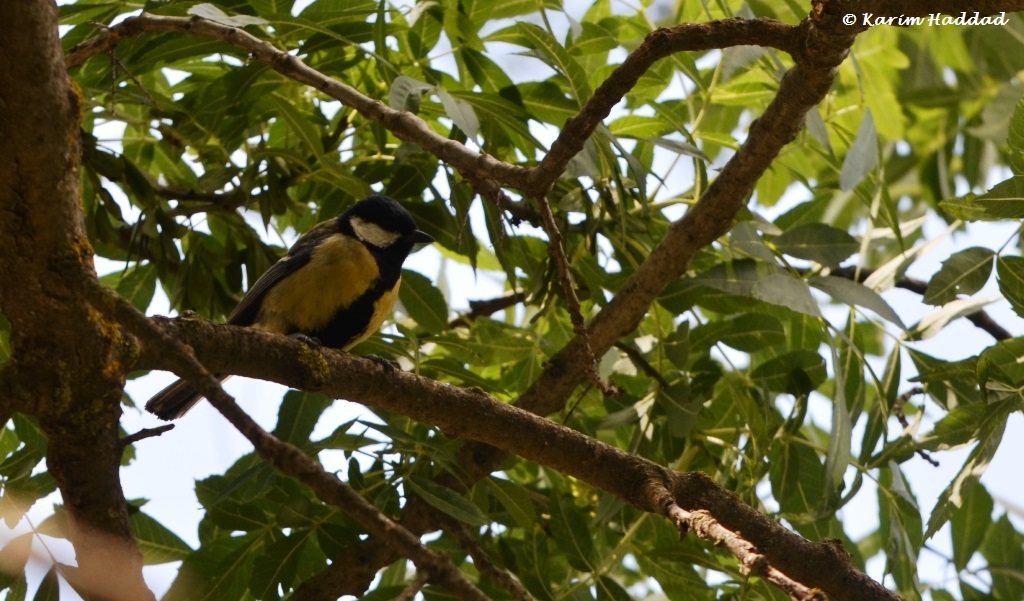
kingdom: Animalia
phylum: Chordata
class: Aves
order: Passeriformes
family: Paridae
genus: Parus
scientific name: Parus major
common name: Great tit
